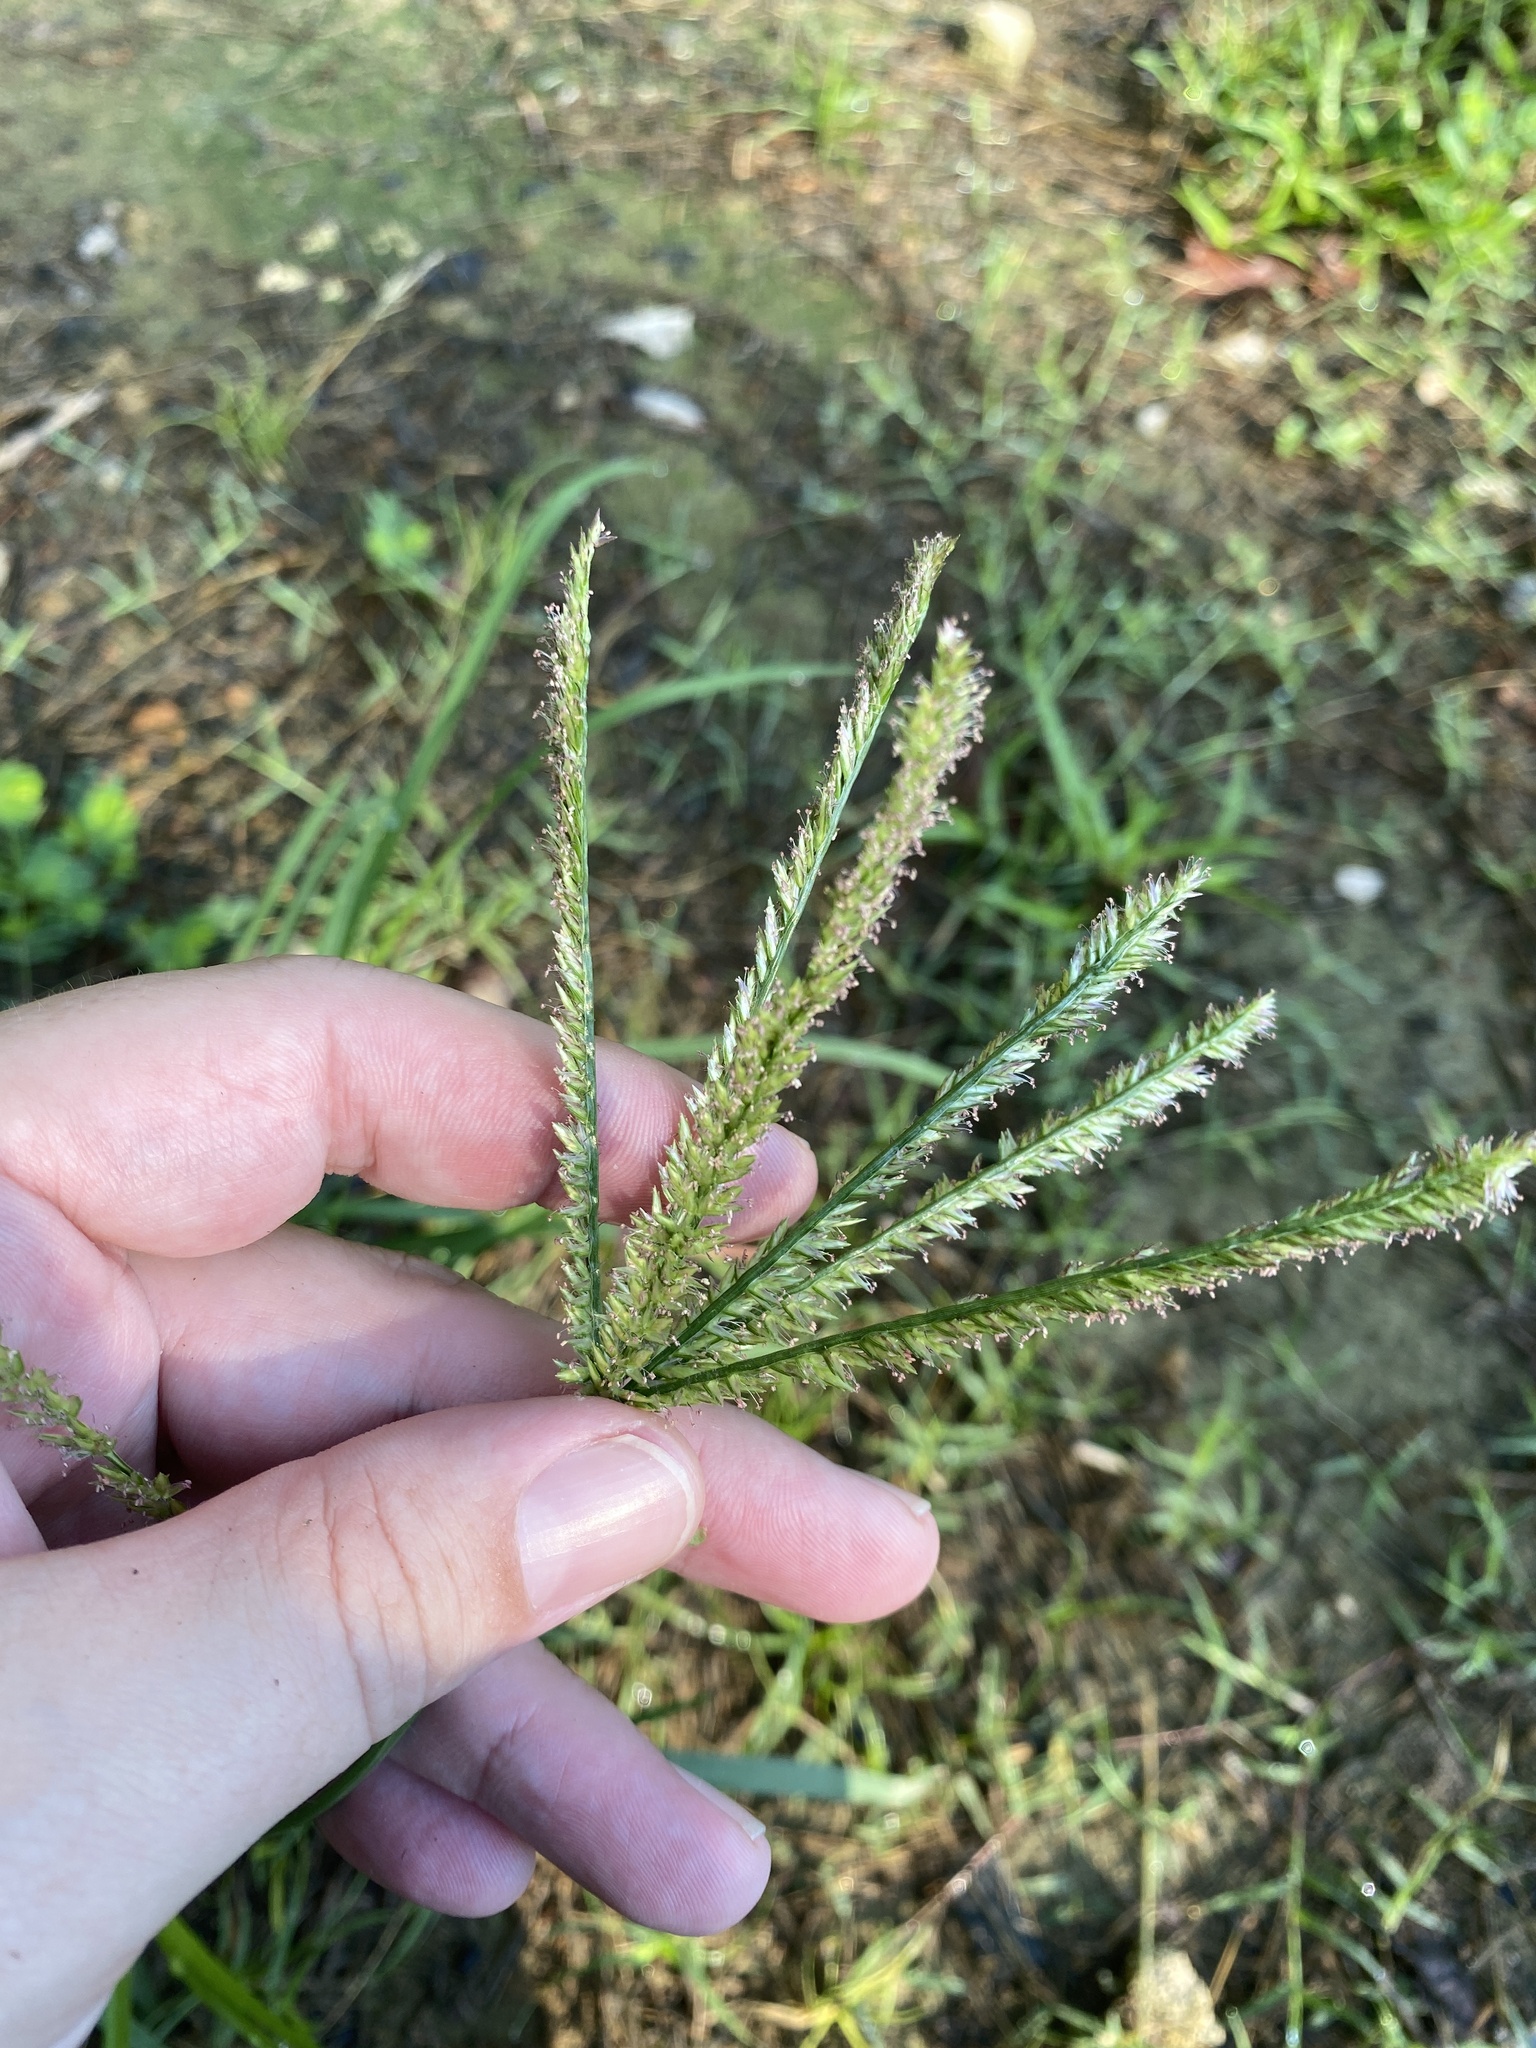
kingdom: Plantae
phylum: Tracheophyta
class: Liliopsida
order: Poales
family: Poaceae
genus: Eleusine
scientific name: Eleusine indica
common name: Yard-grass
